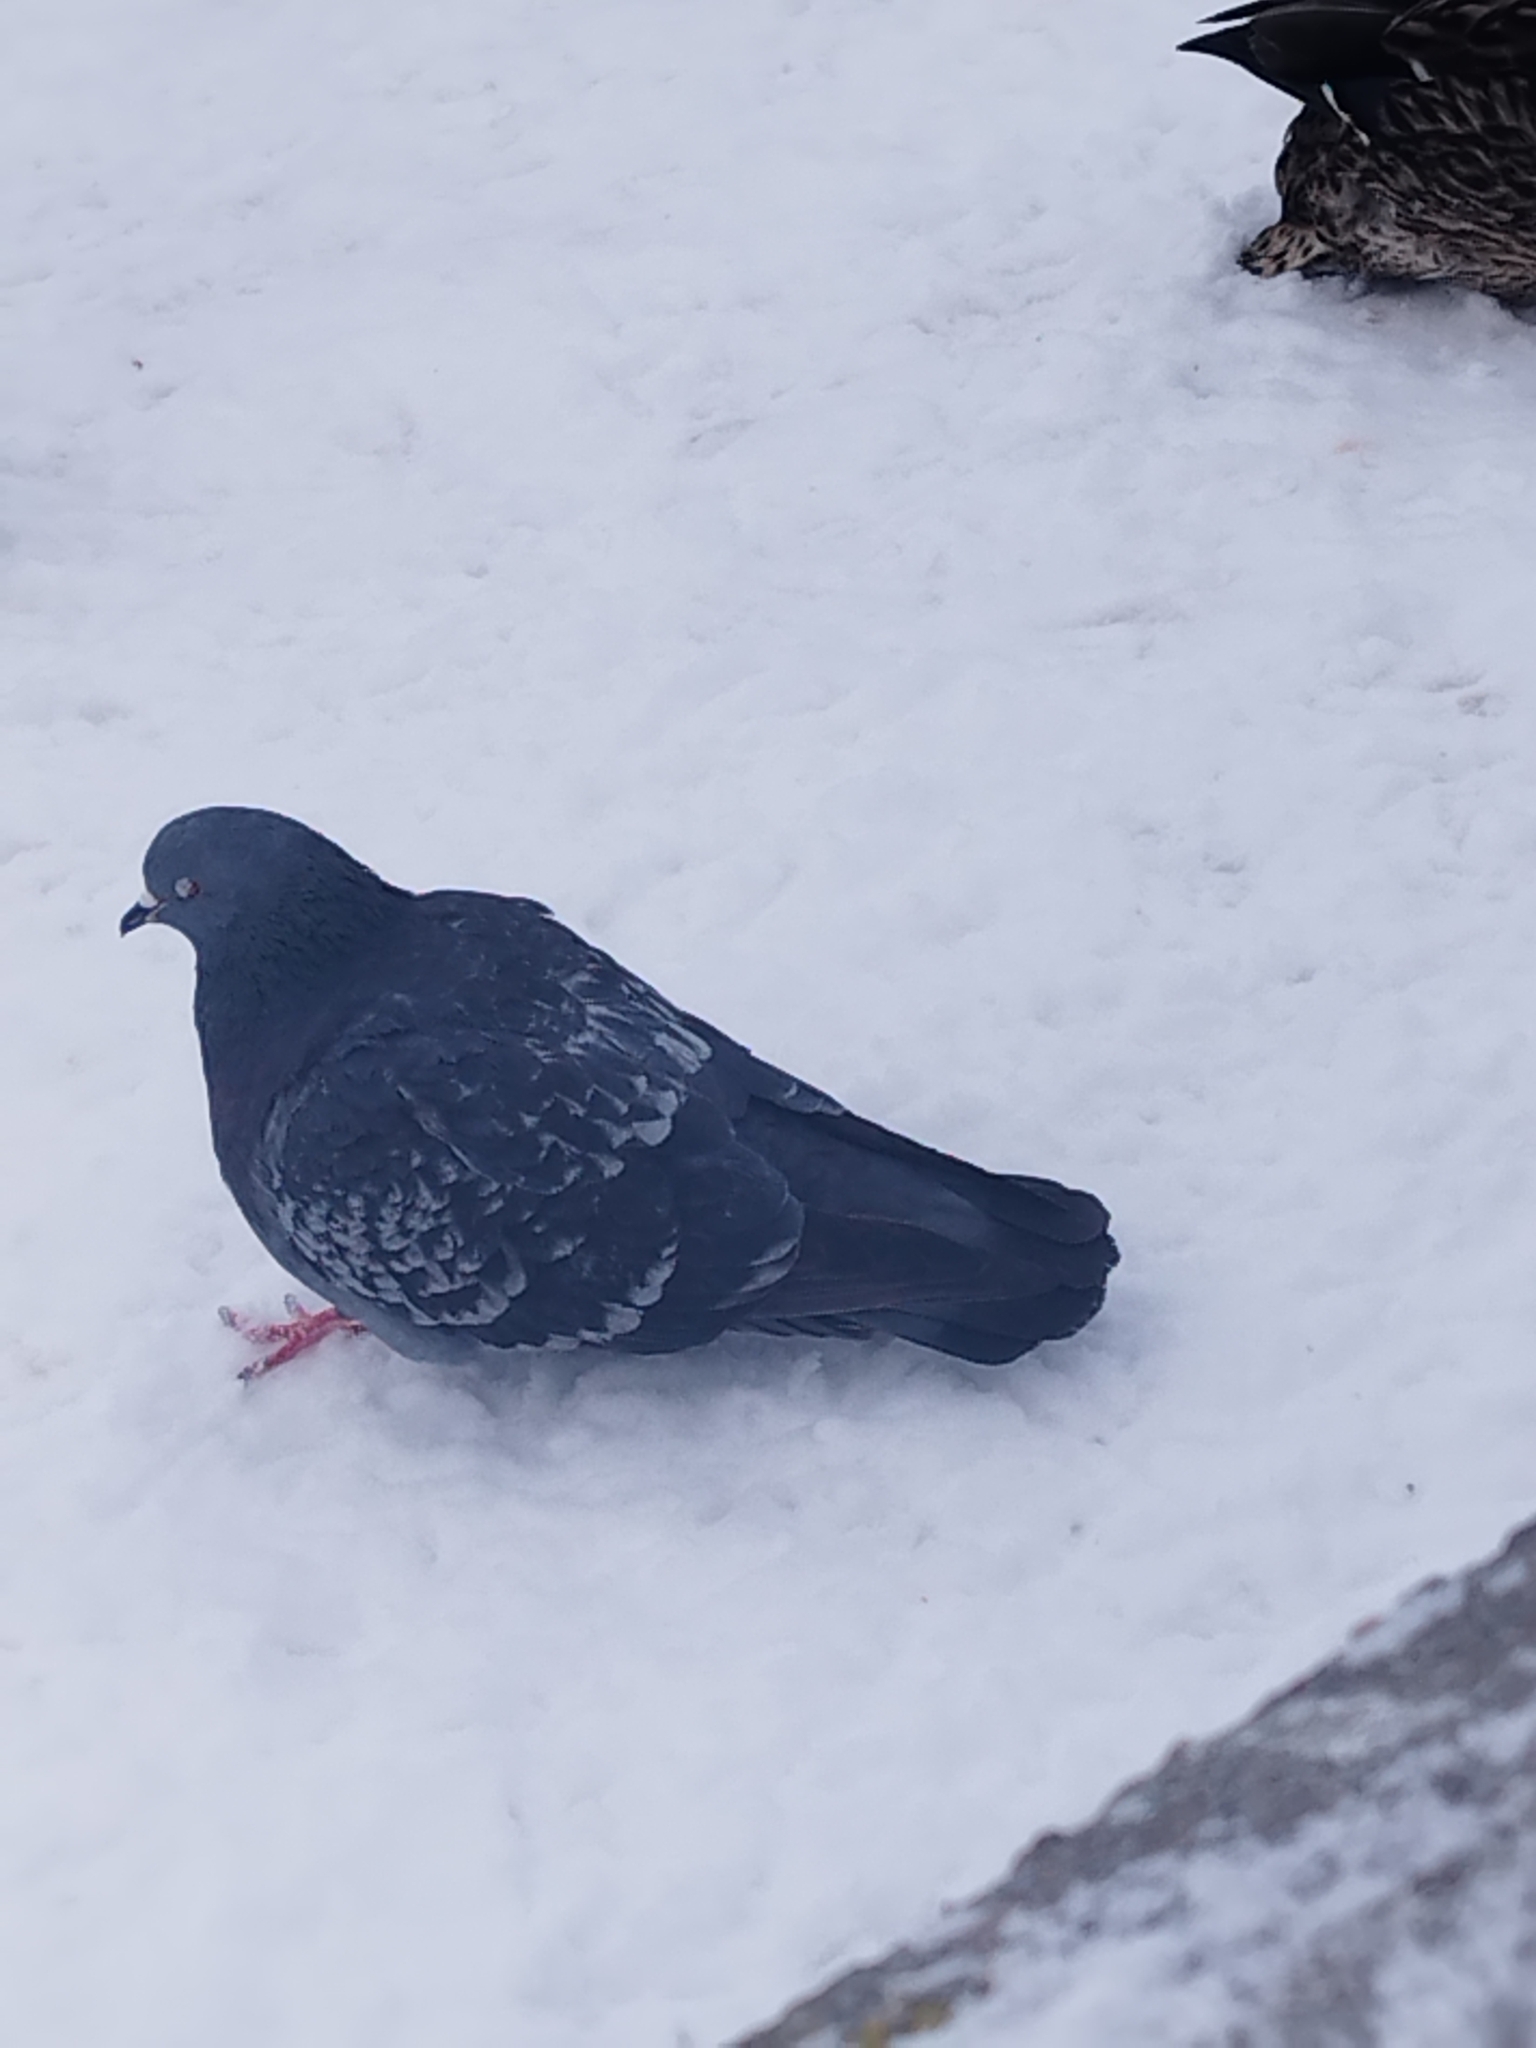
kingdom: Animalia
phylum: Chordata
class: Aves
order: Columbiformes
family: Columbidae
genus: Columba
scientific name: Columba livia
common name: Rock pigeon
